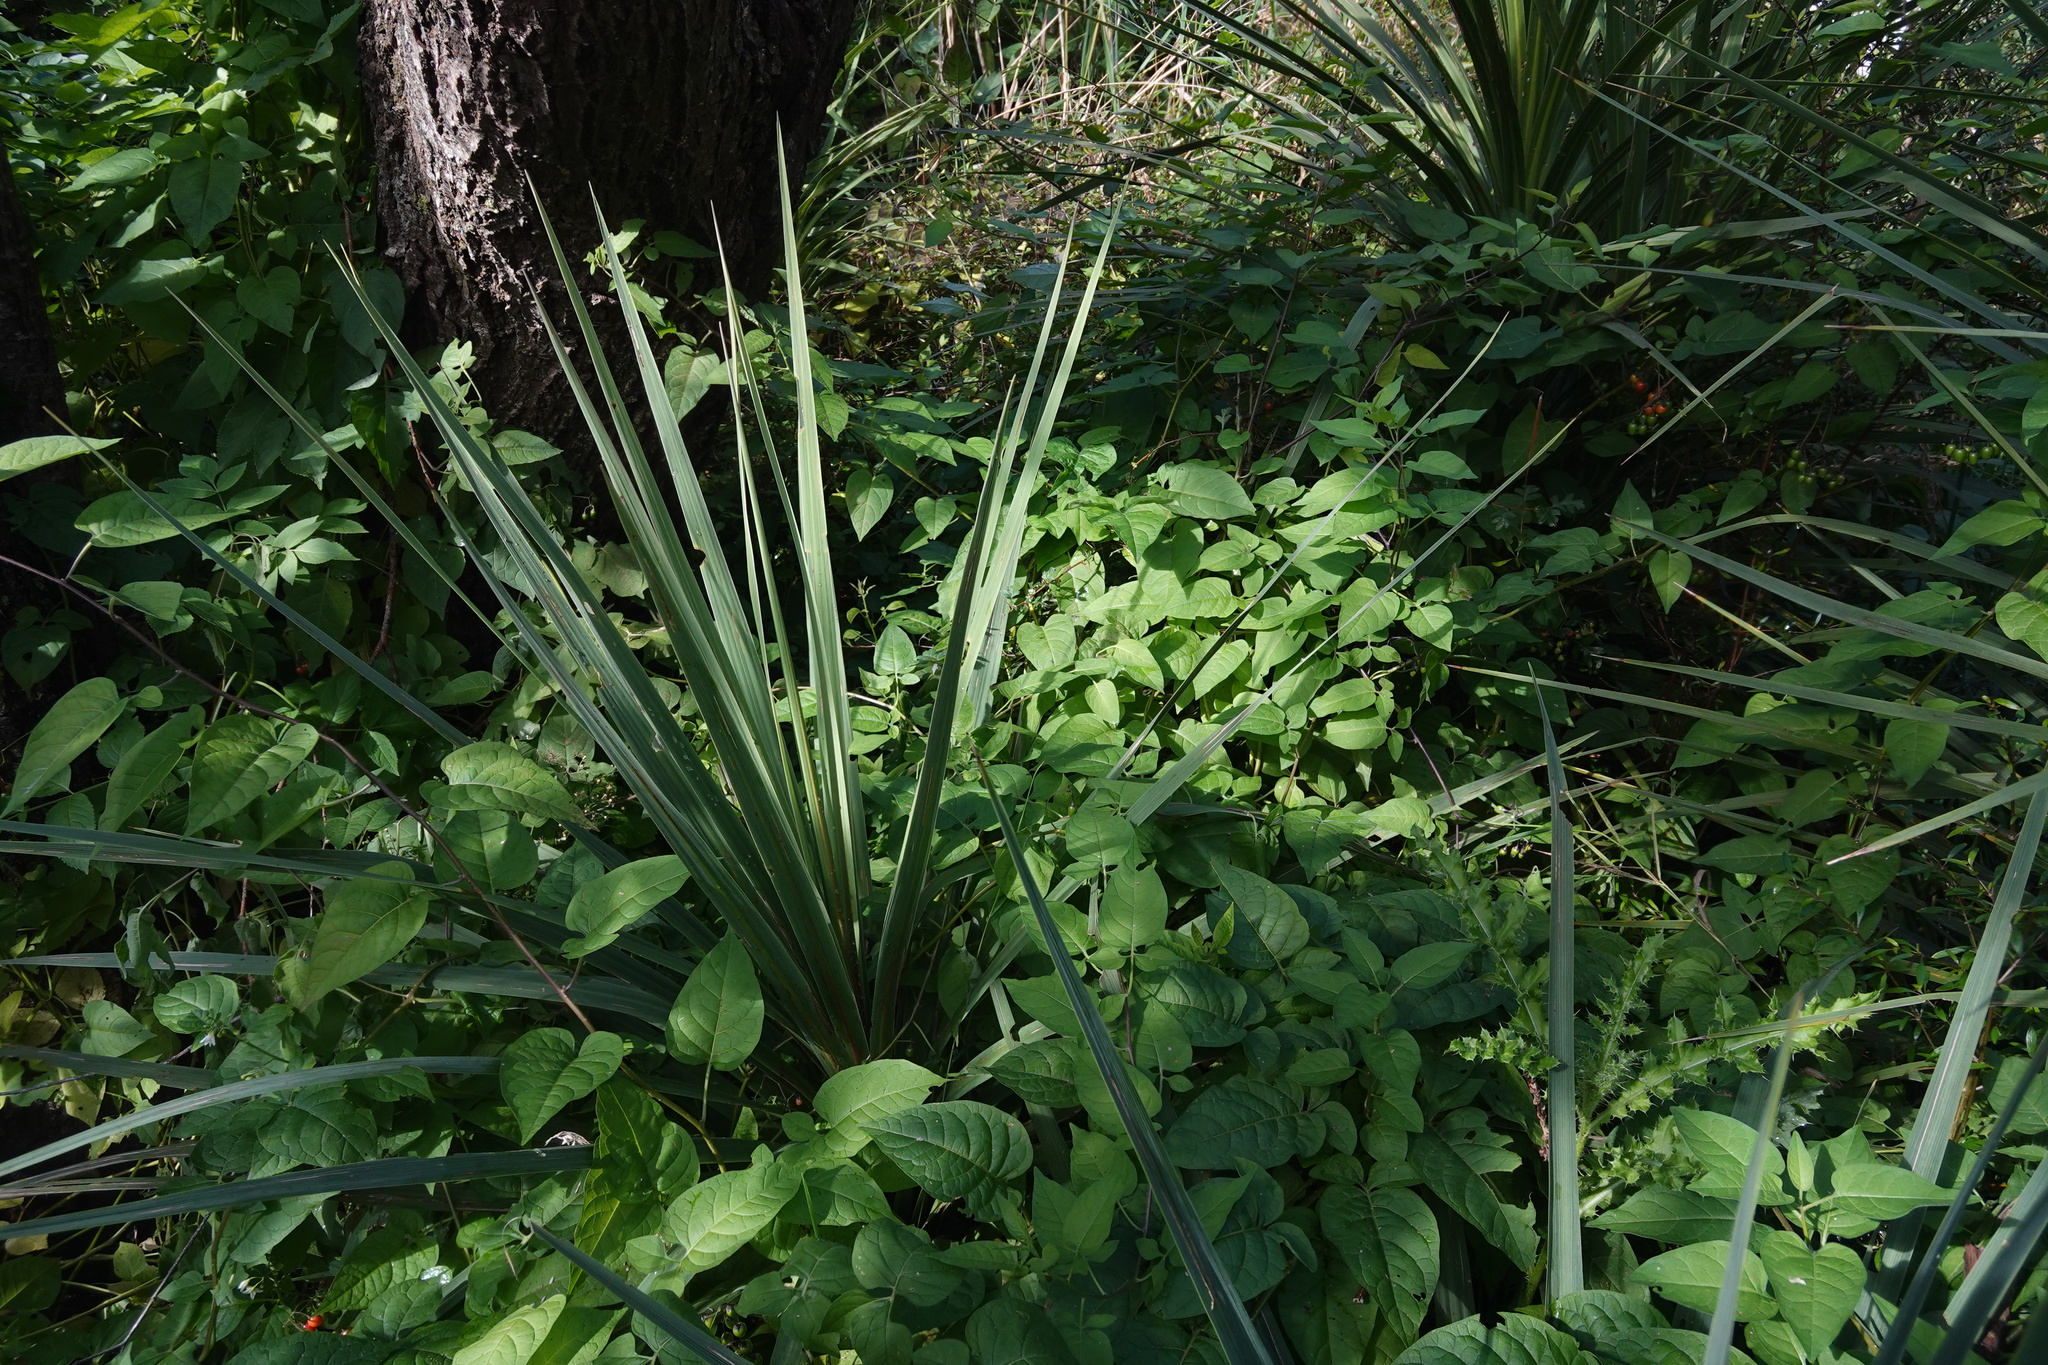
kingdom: Plantae
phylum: Tracheophyta
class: Liliopsida
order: Asparagales
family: Asparagaceae
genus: Cordyline
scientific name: Cordyline australis
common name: Cabbage-palm
